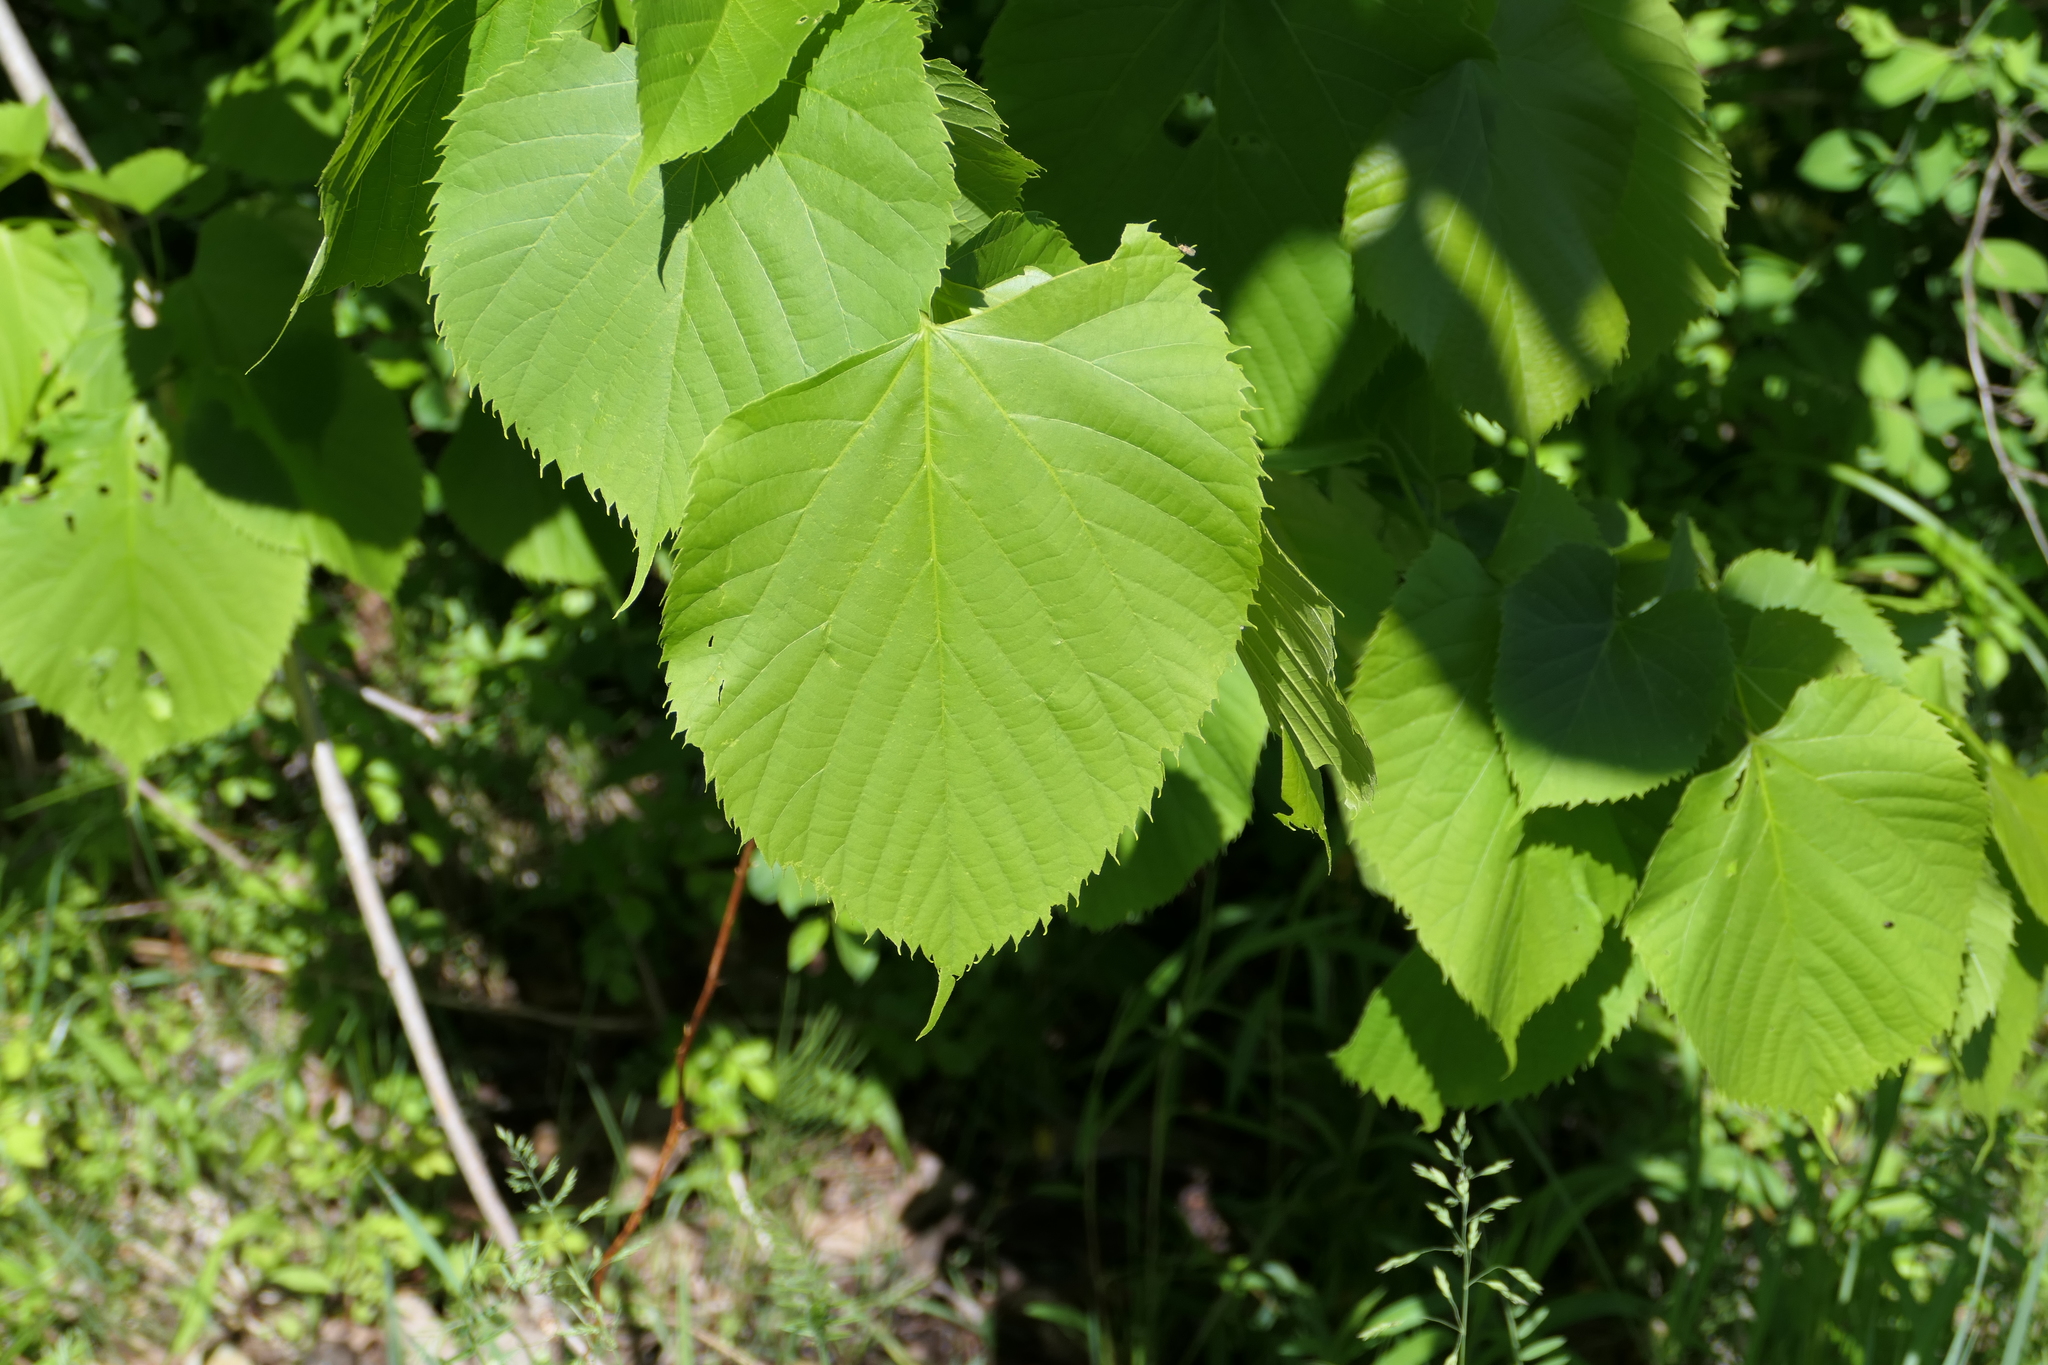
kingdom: Plantae
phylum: Tracheophyta
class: Magnoliopsida
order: Malvales
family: Malvaceae
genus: Tilia
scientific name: Tilia americana
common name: Basswood
